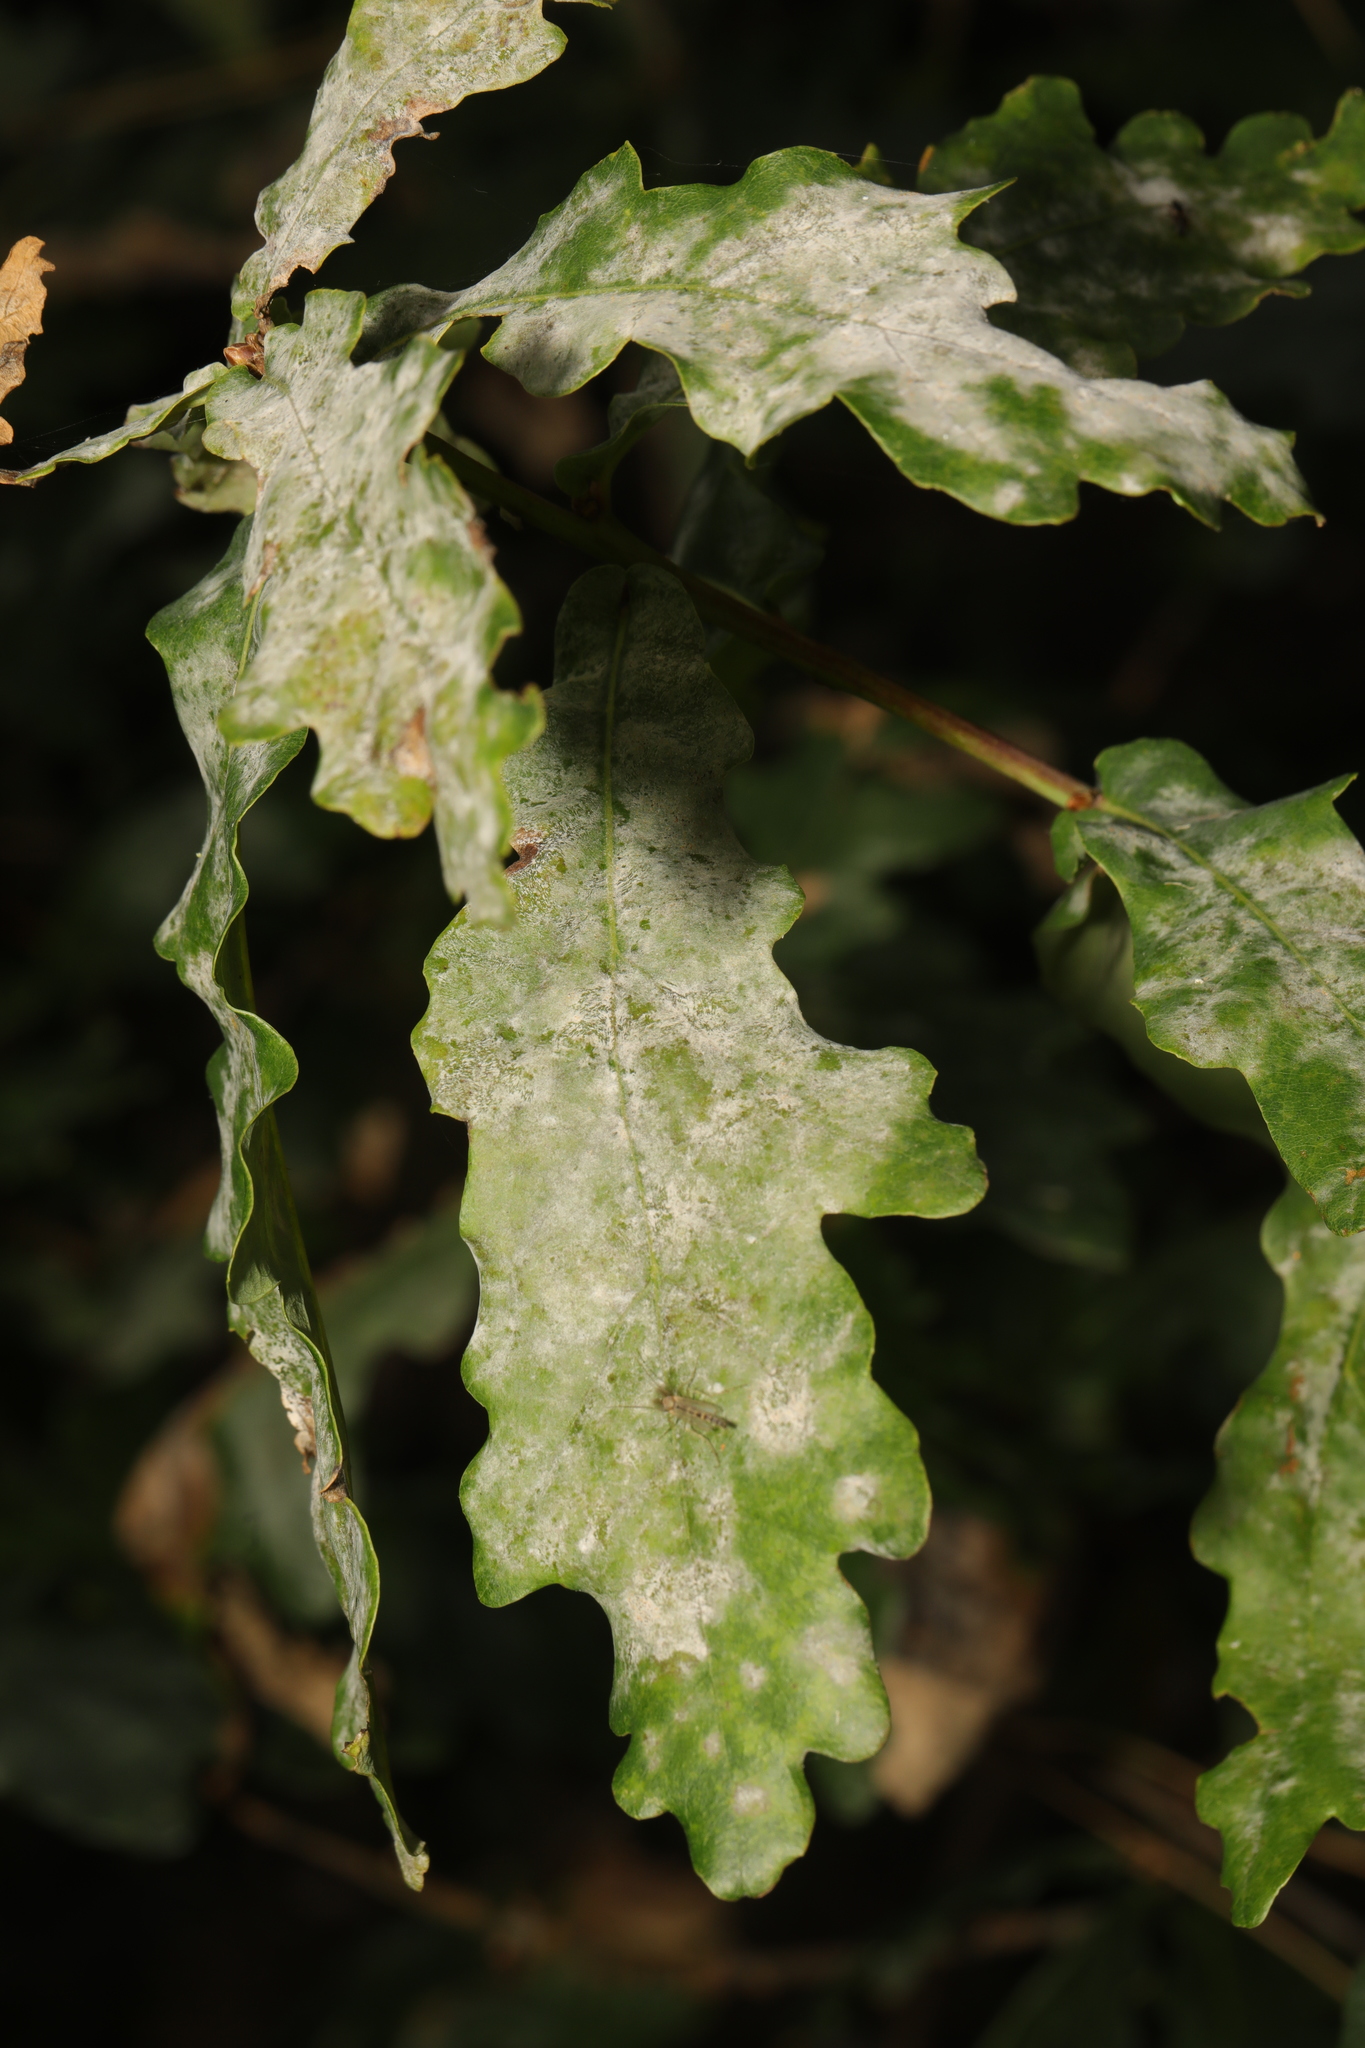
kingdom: Fungi
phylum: Ascomycota
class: Leotiomycetes
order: Helotiales
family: Erysiphaceae
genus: Erysiphe
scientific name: Erysiphe alphitoides
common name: Oak mildew
